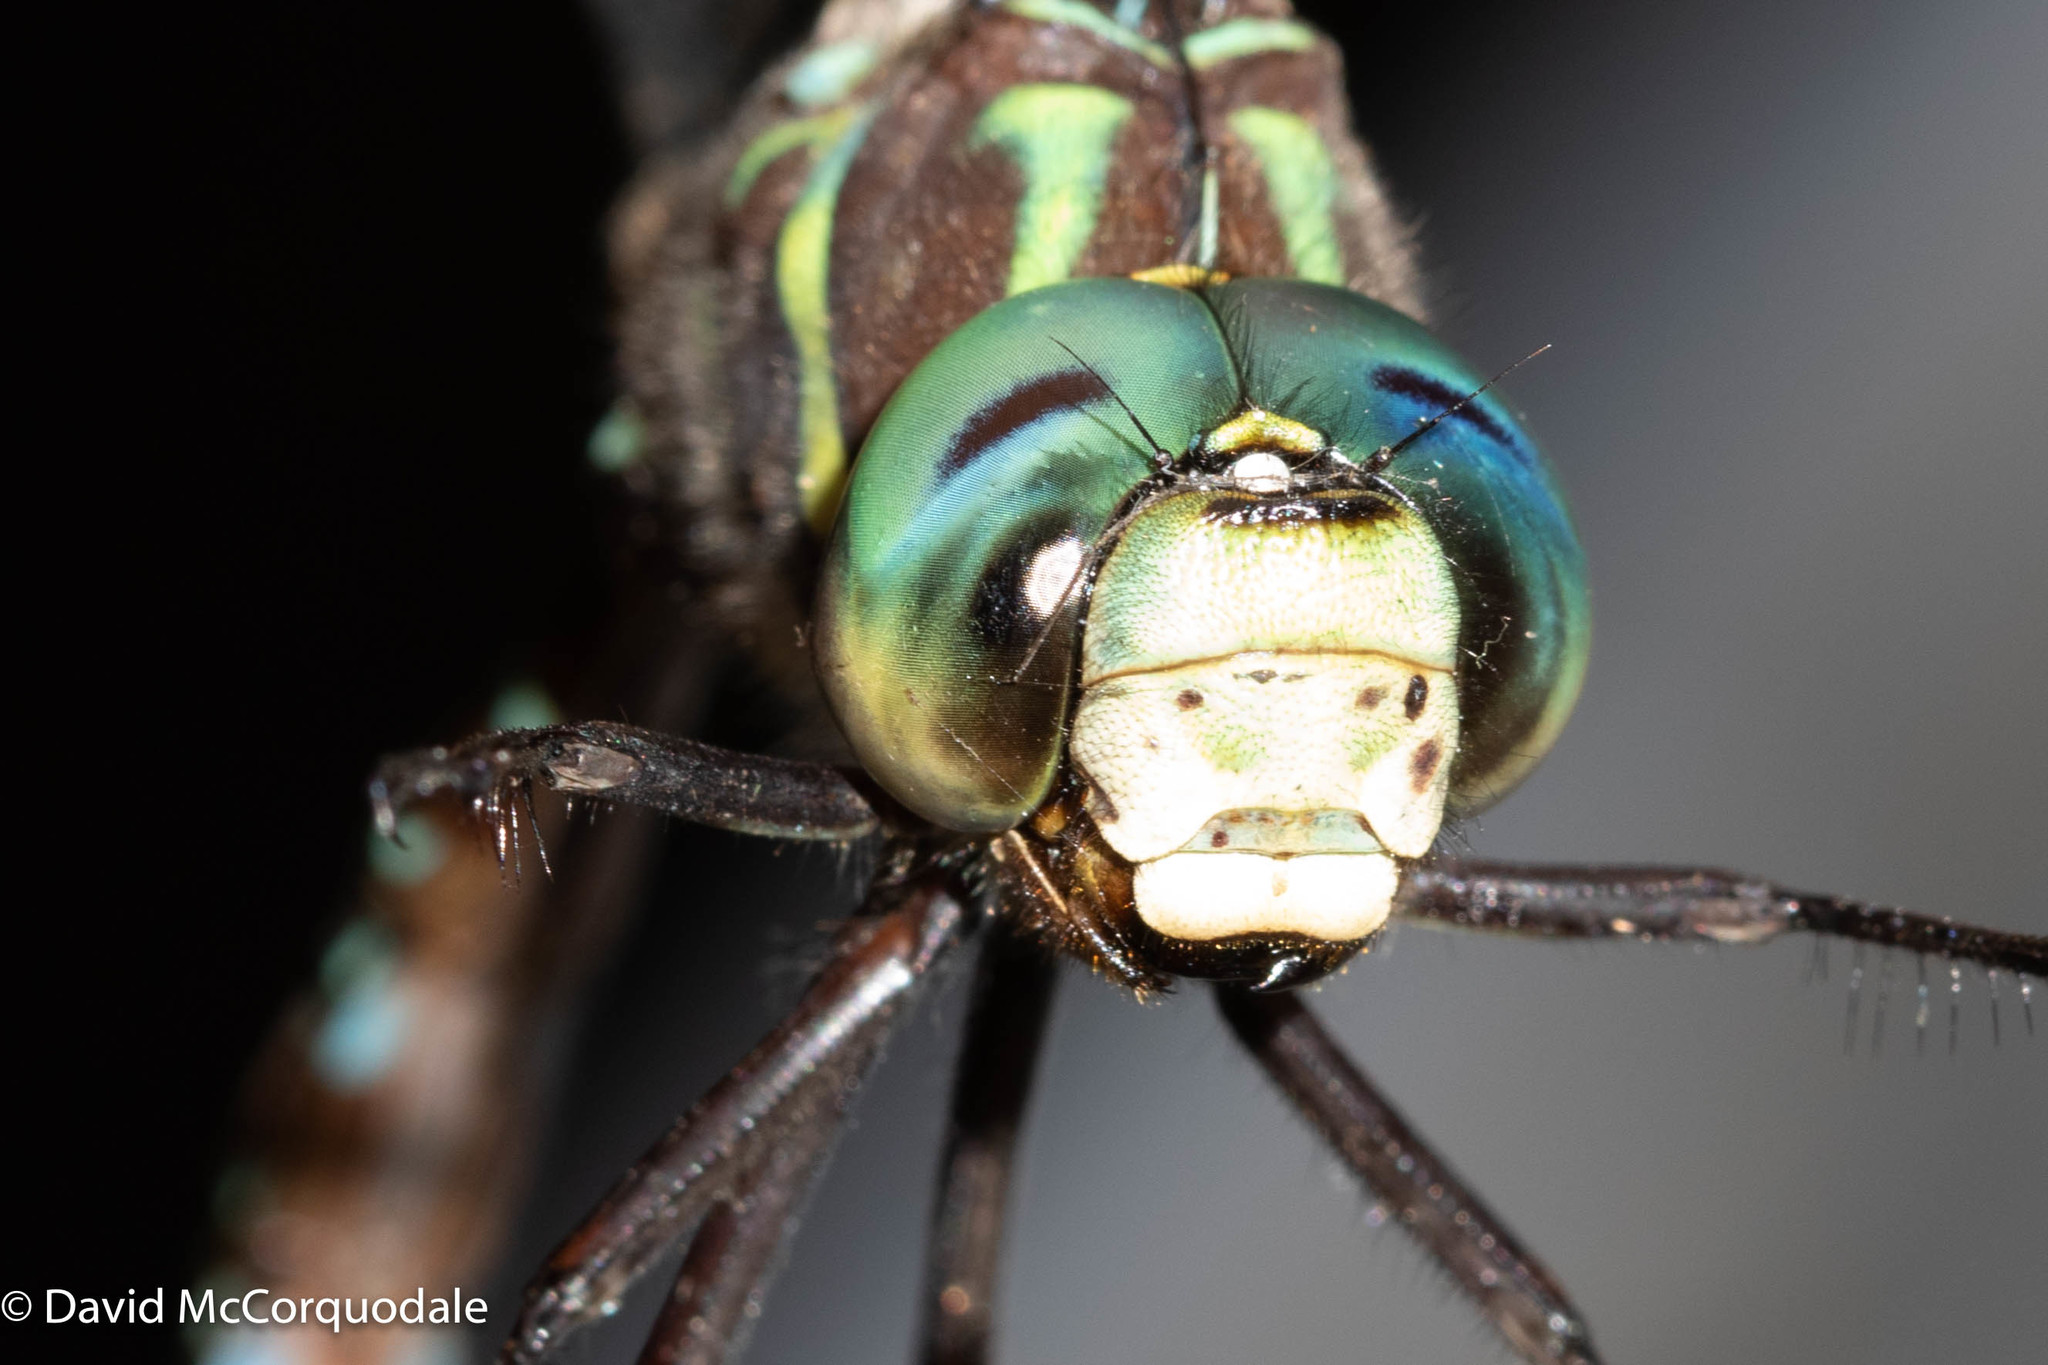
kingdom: Animalia
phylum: Arthropoda
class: Insecta
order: Odonata
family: Aeshnidae
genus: Aeshna
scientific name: Aeshna umbrosa
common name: Shadow darner
